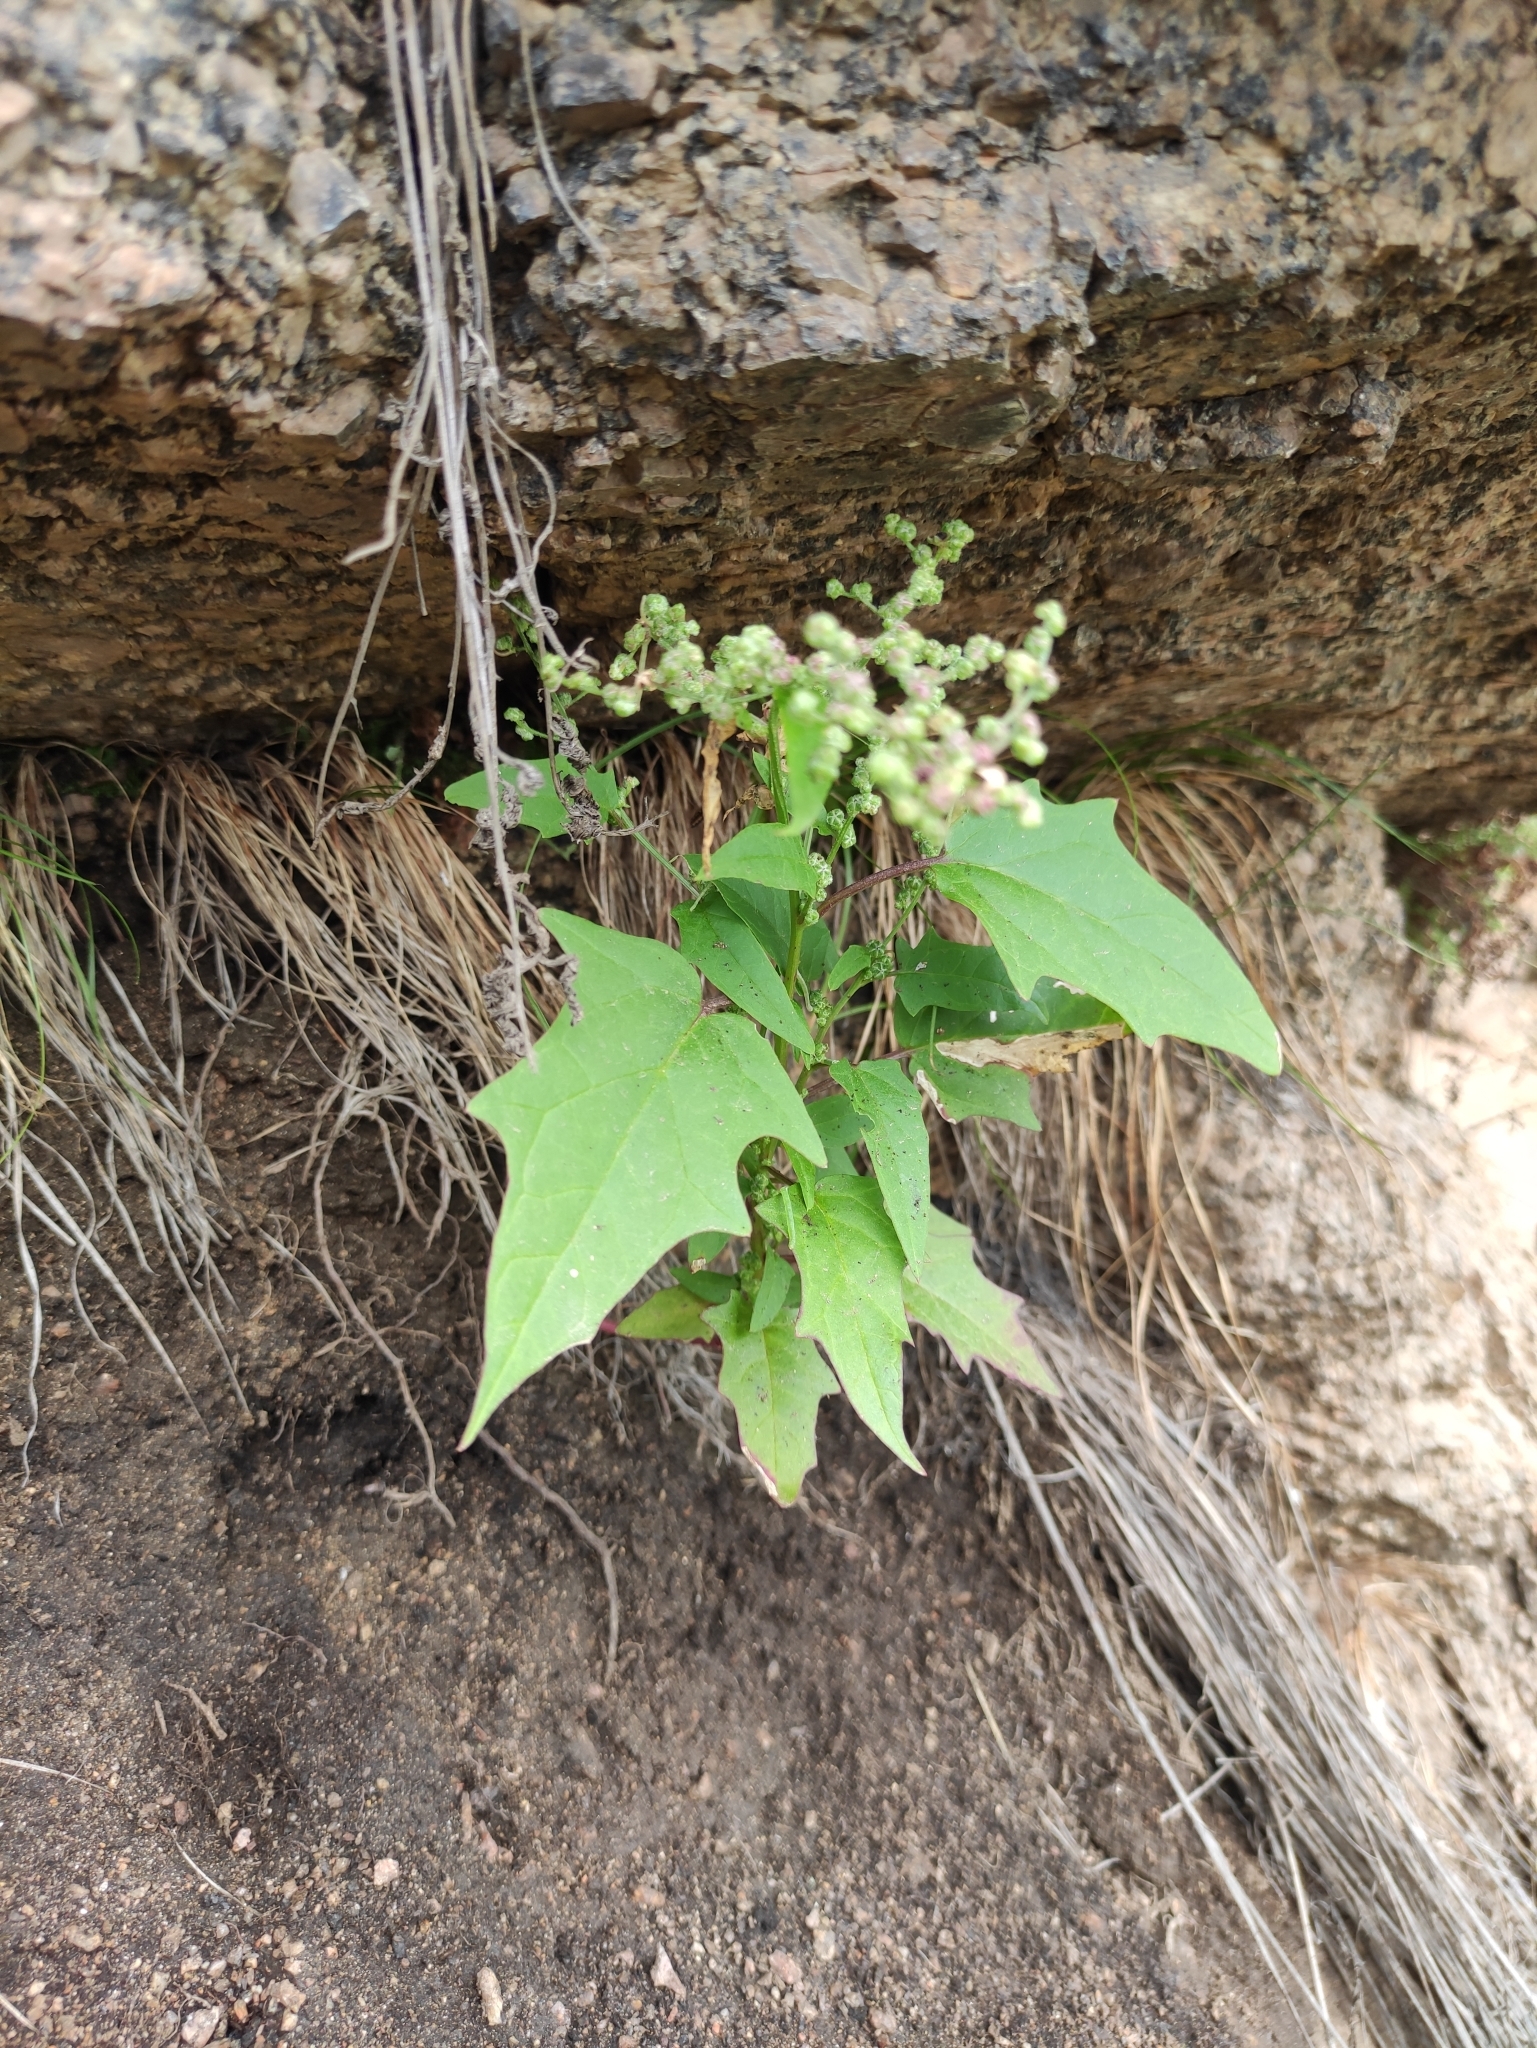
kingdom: Plantae
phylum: Tracheophyta
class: Magnoliopsida
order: Caryophyllales
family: Amaranthaceae
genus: Chenopodiastrum
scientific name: Chenopodiastrum hybridum
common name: Mapleleaf goosefoot
